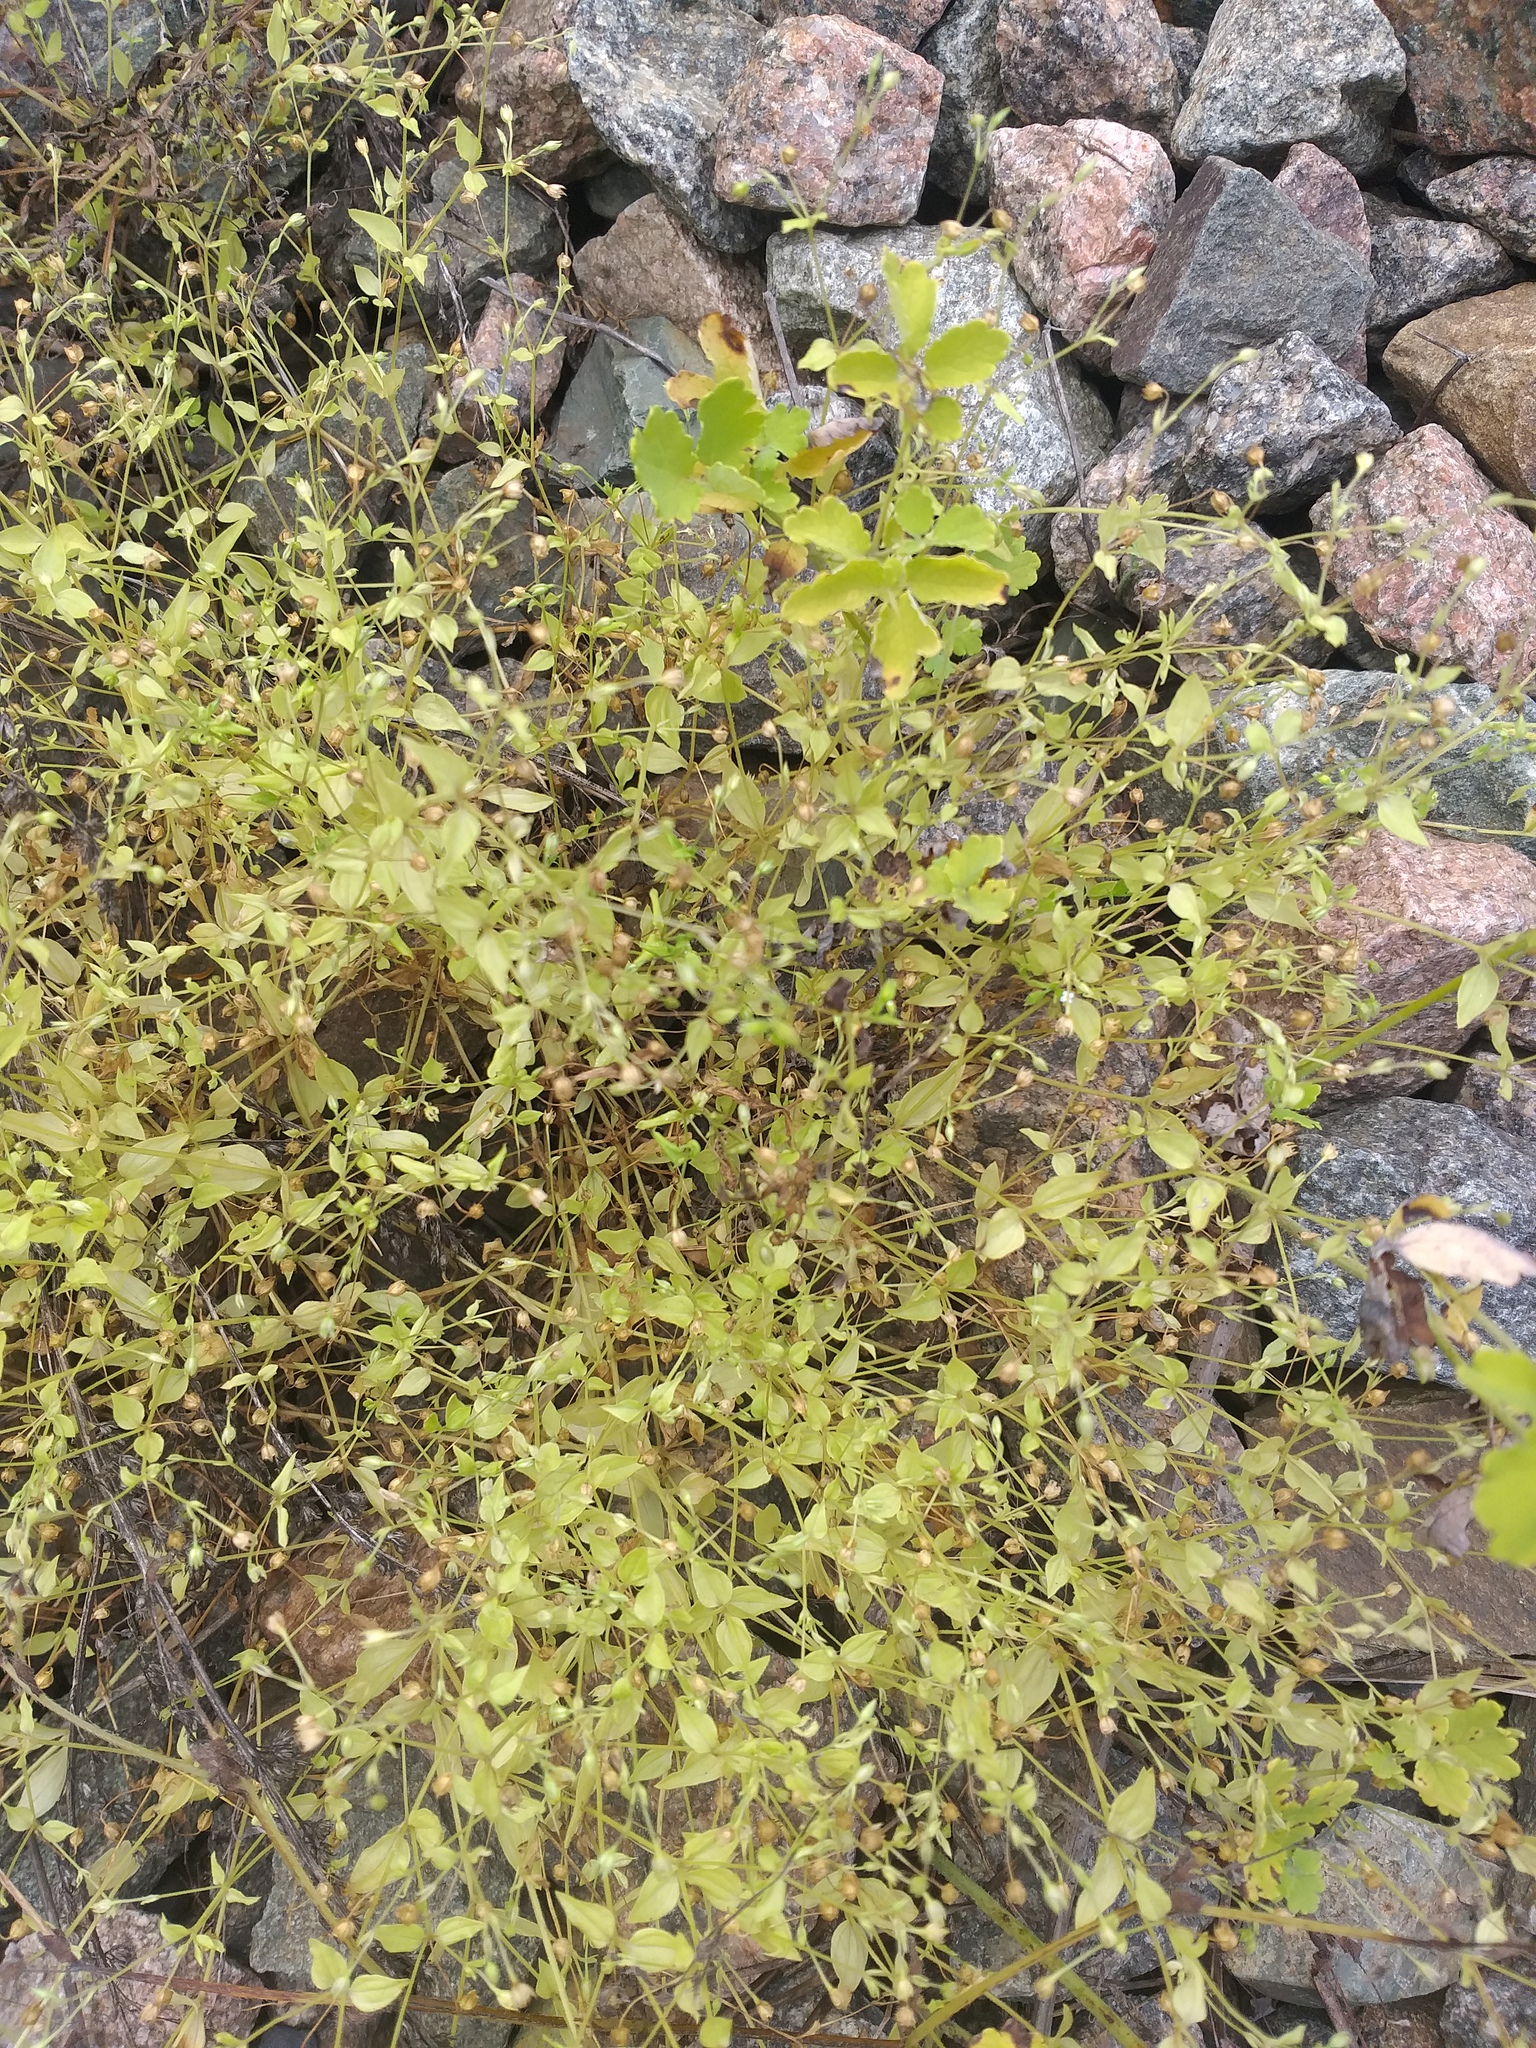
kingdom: Plantae
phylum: Tracheophyta
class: Magnoliopsida
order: Caryophyllales
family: Caryophyllaceae
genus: Moehringia
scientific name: Moehringia trinervia
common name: Three-nerved sandwort
